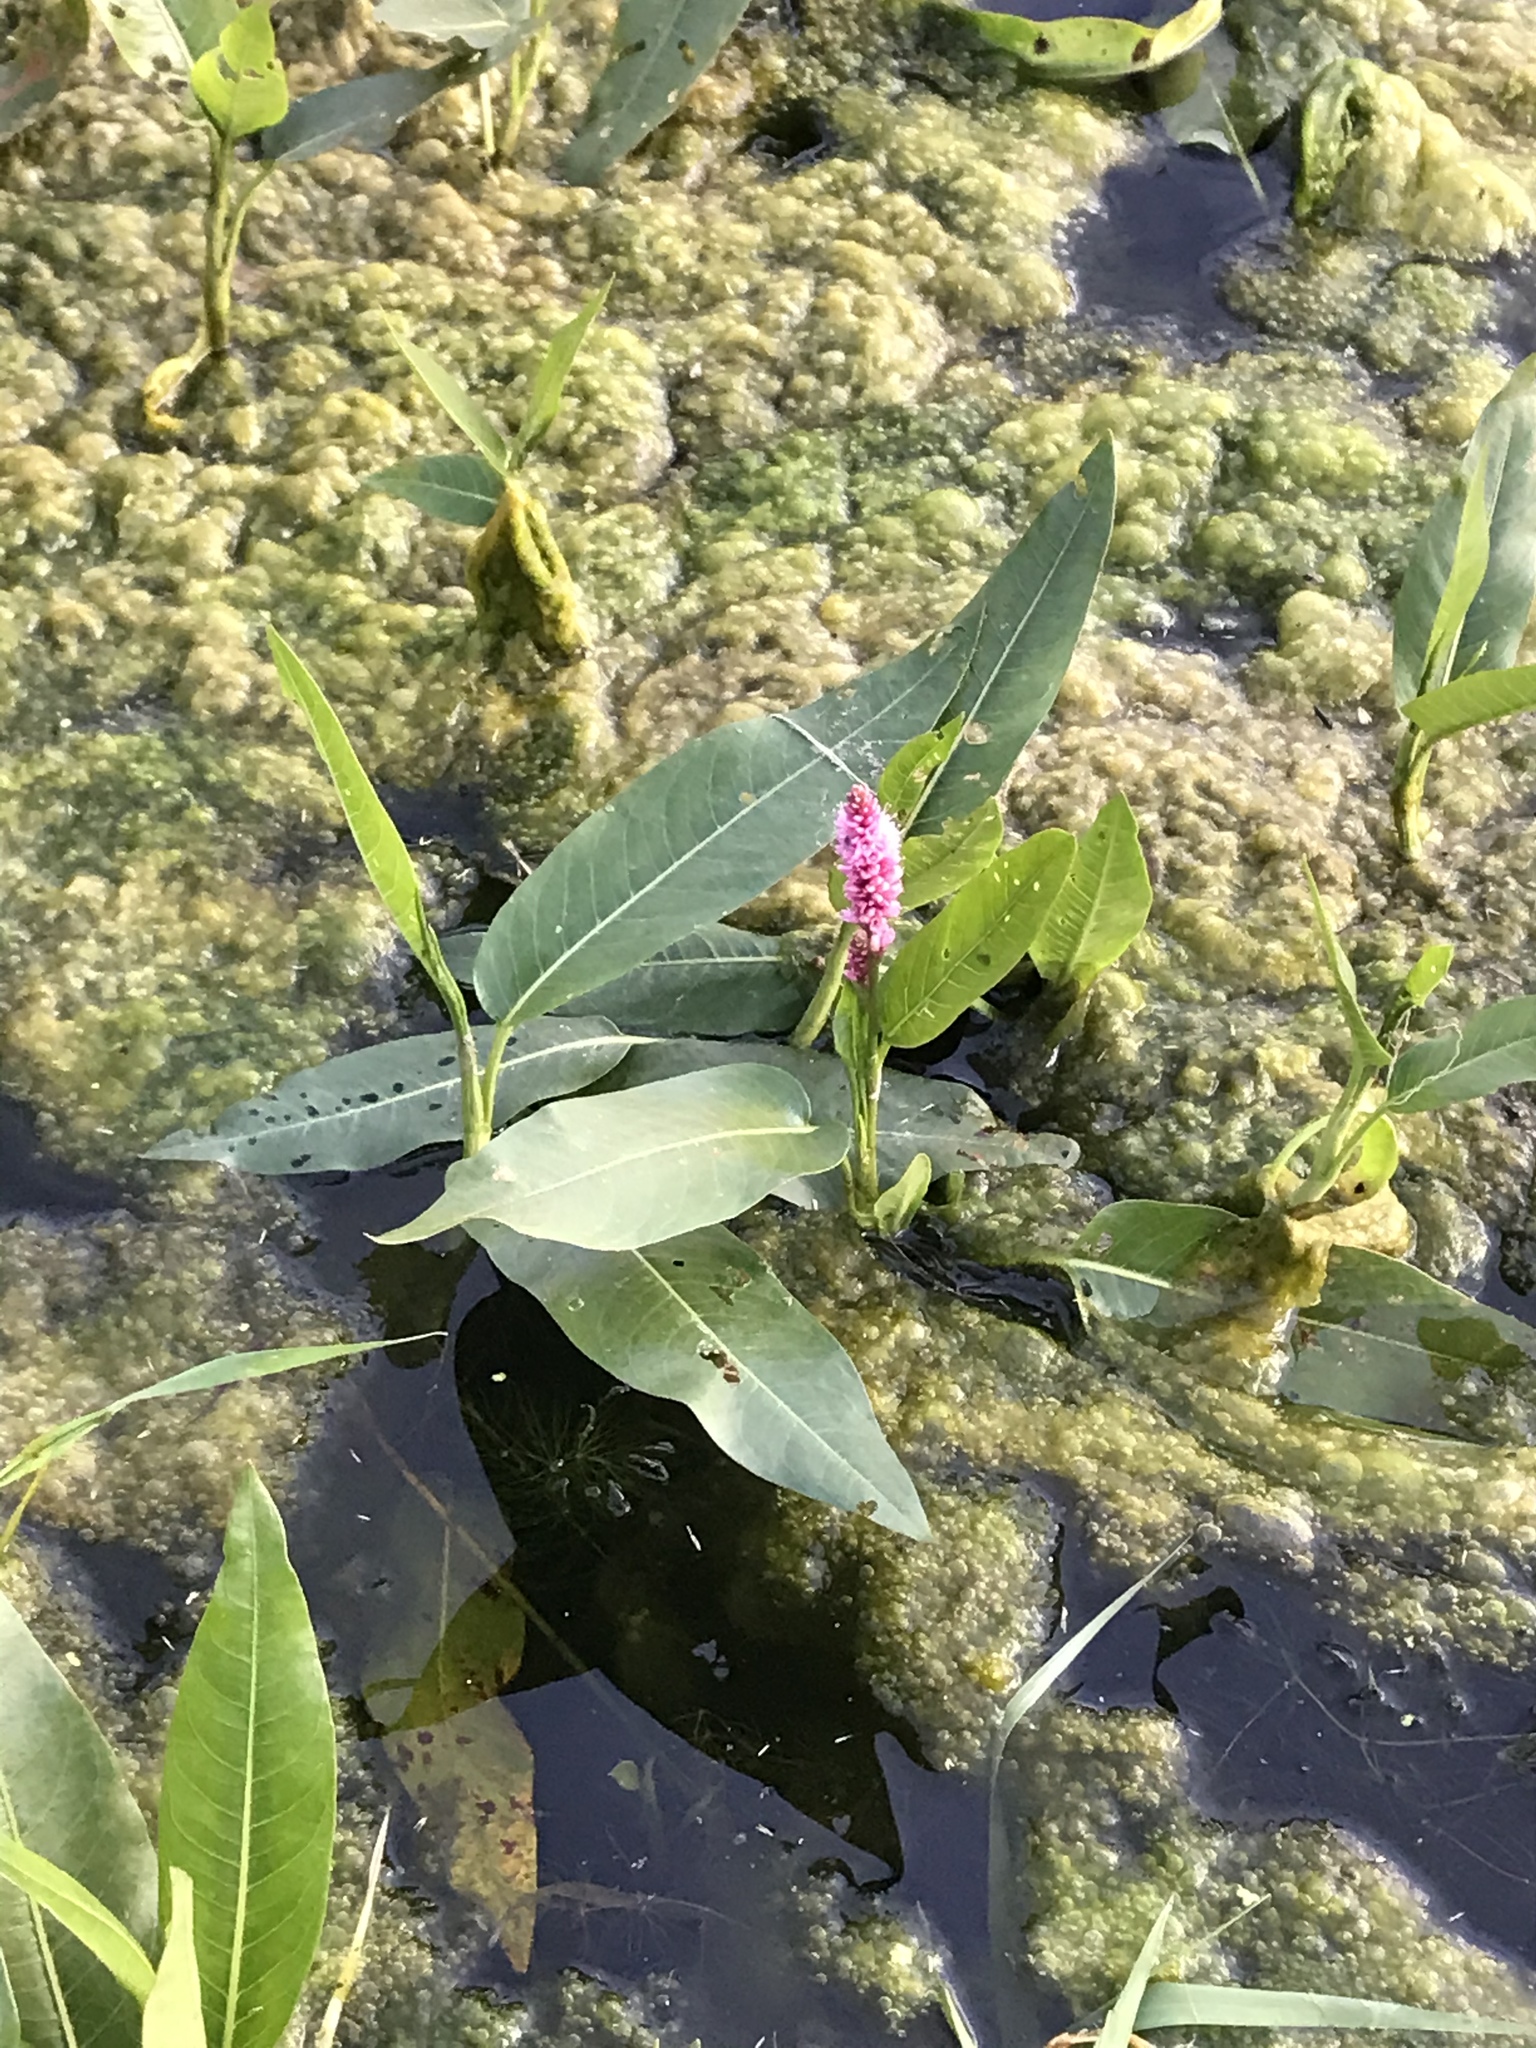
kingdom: Plantae
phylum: Tracheophyta
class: Magnoliopsida
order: Caryophyllales
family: Polygonaceae
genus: Persicaria
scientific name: Persicaria amphibia
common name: Amphibious bistort
